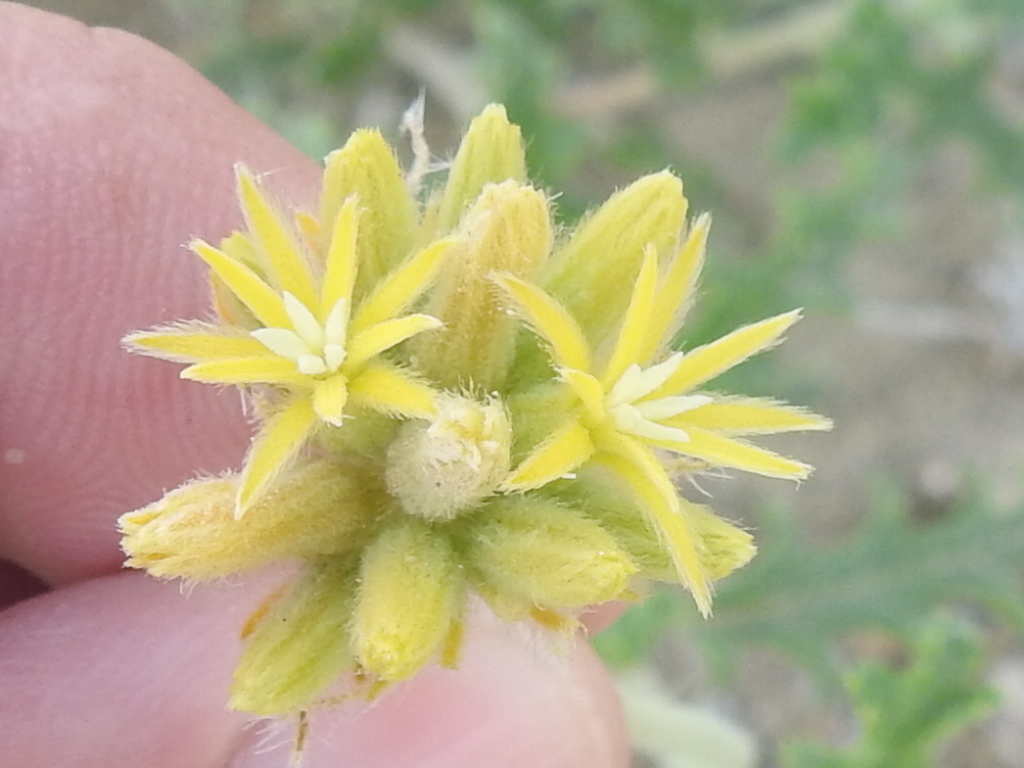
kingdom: Plantae
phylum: Tracheophyta
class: Magnoliopsida
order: Cornales
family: Loasaceae
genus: Cevallia
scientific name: Cevallia sinuata
